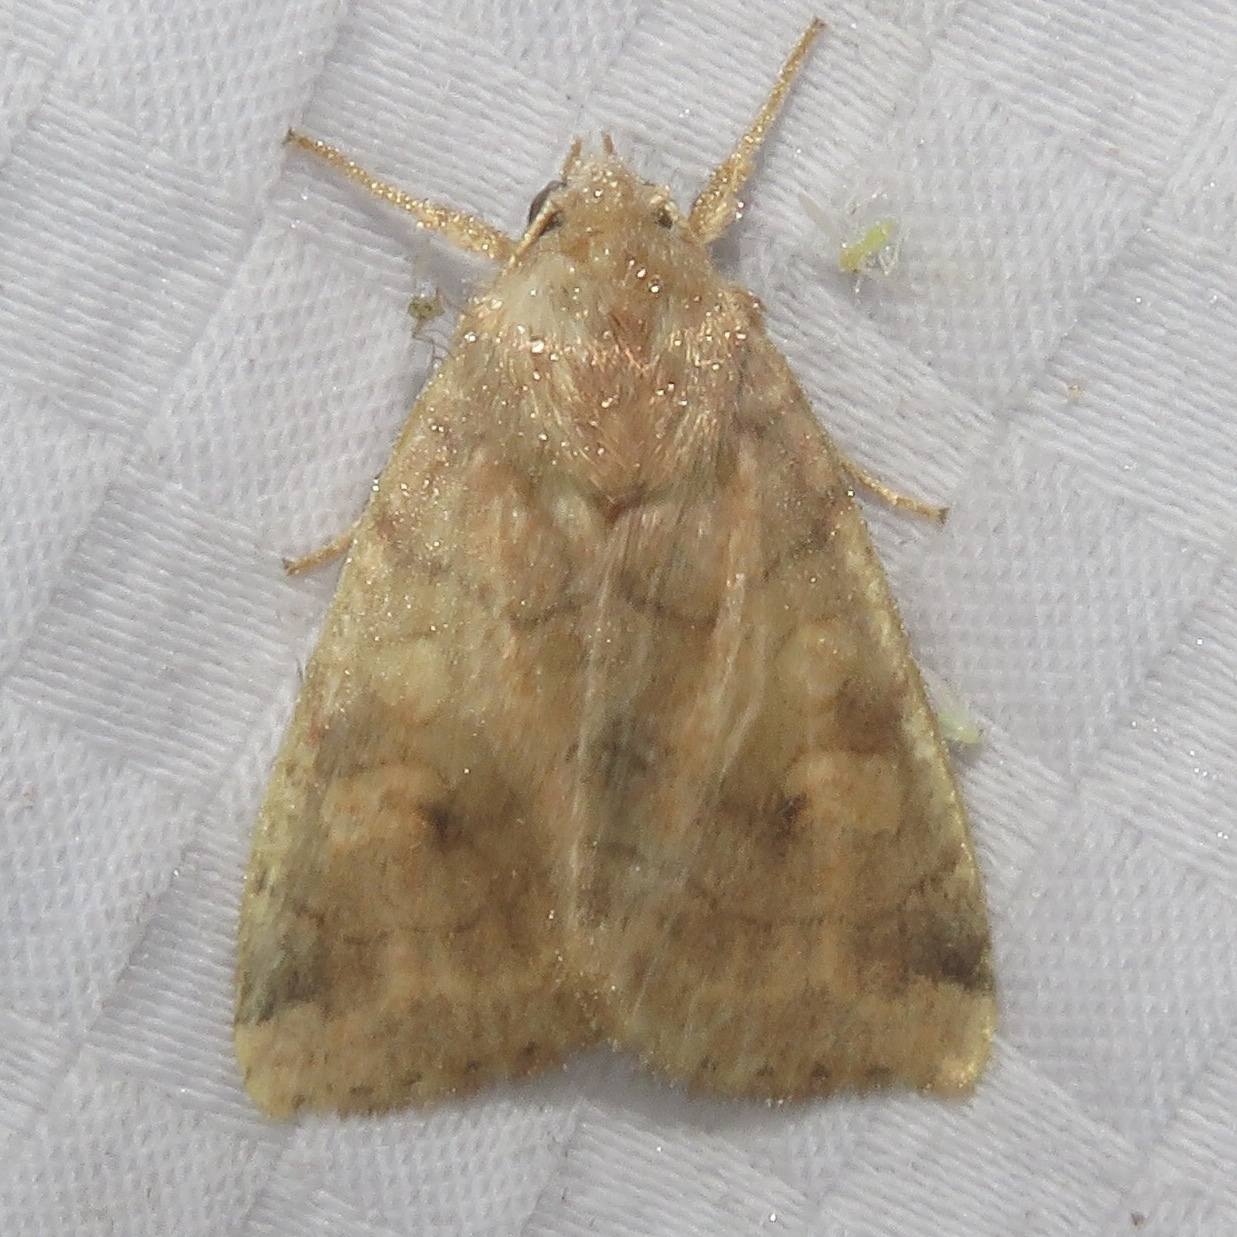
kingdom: Animalia
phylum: Arthropoda
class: Insecta
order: Lepidoptera
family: Noctuidae
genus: Enargia
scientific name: Enargia infumata
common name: Smoked sallow
